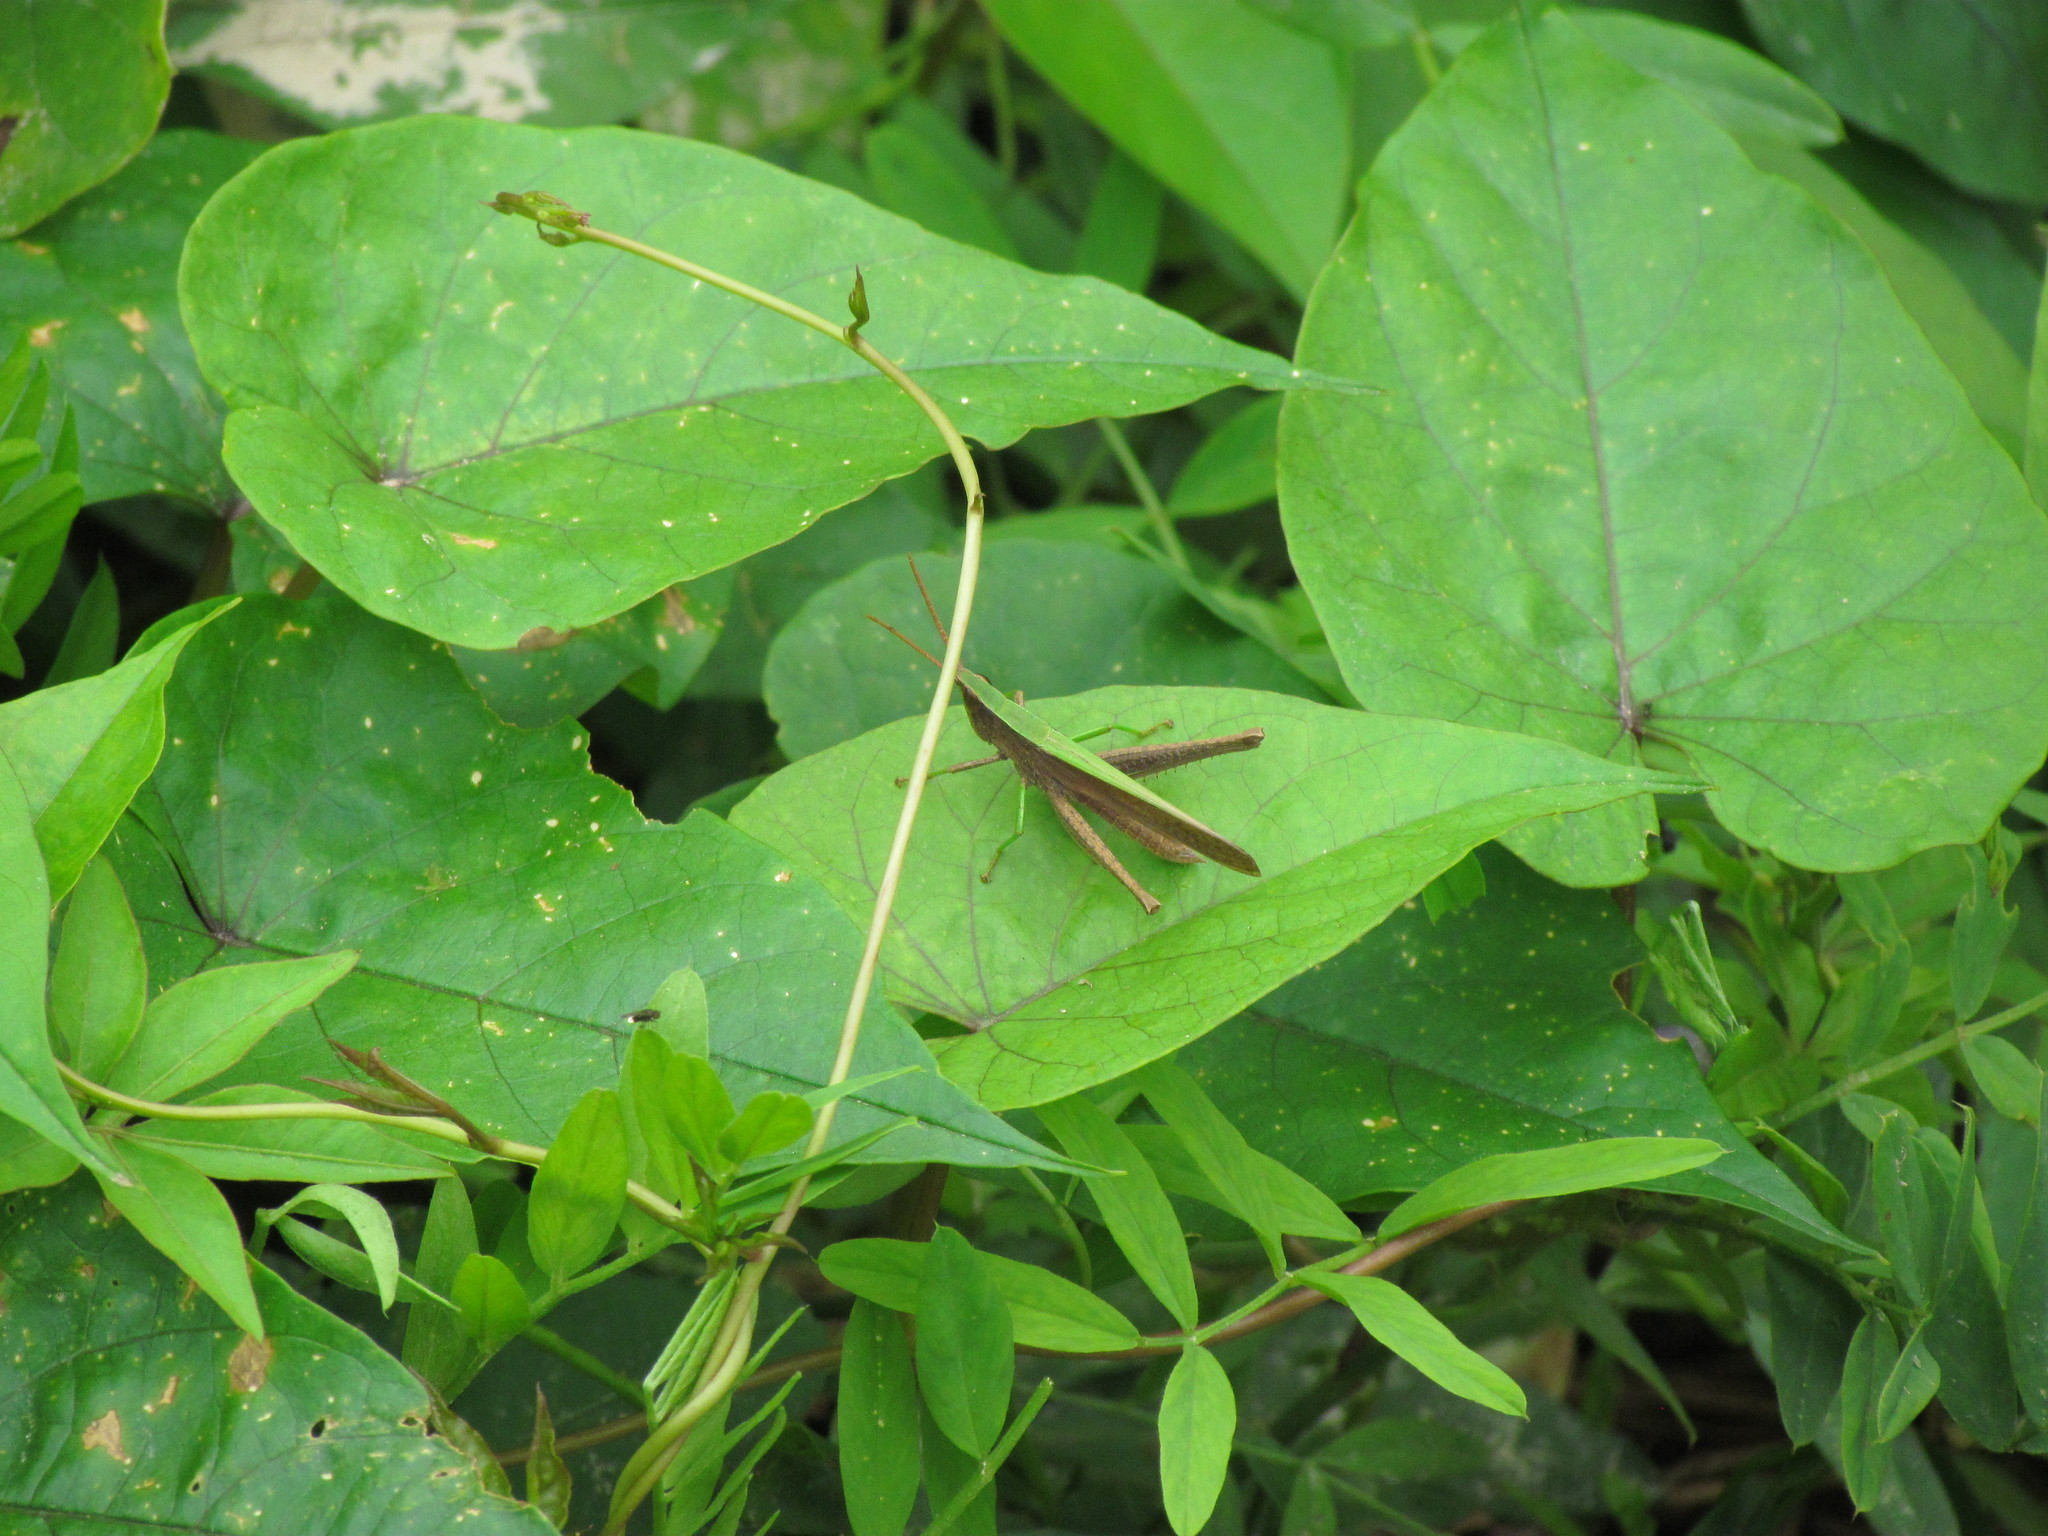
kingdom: Animalia
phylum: Arthropoda
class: Insecta
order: Orthoptera
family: Acrididae
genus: Metaleptea
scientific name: Metaleptea adspersa
